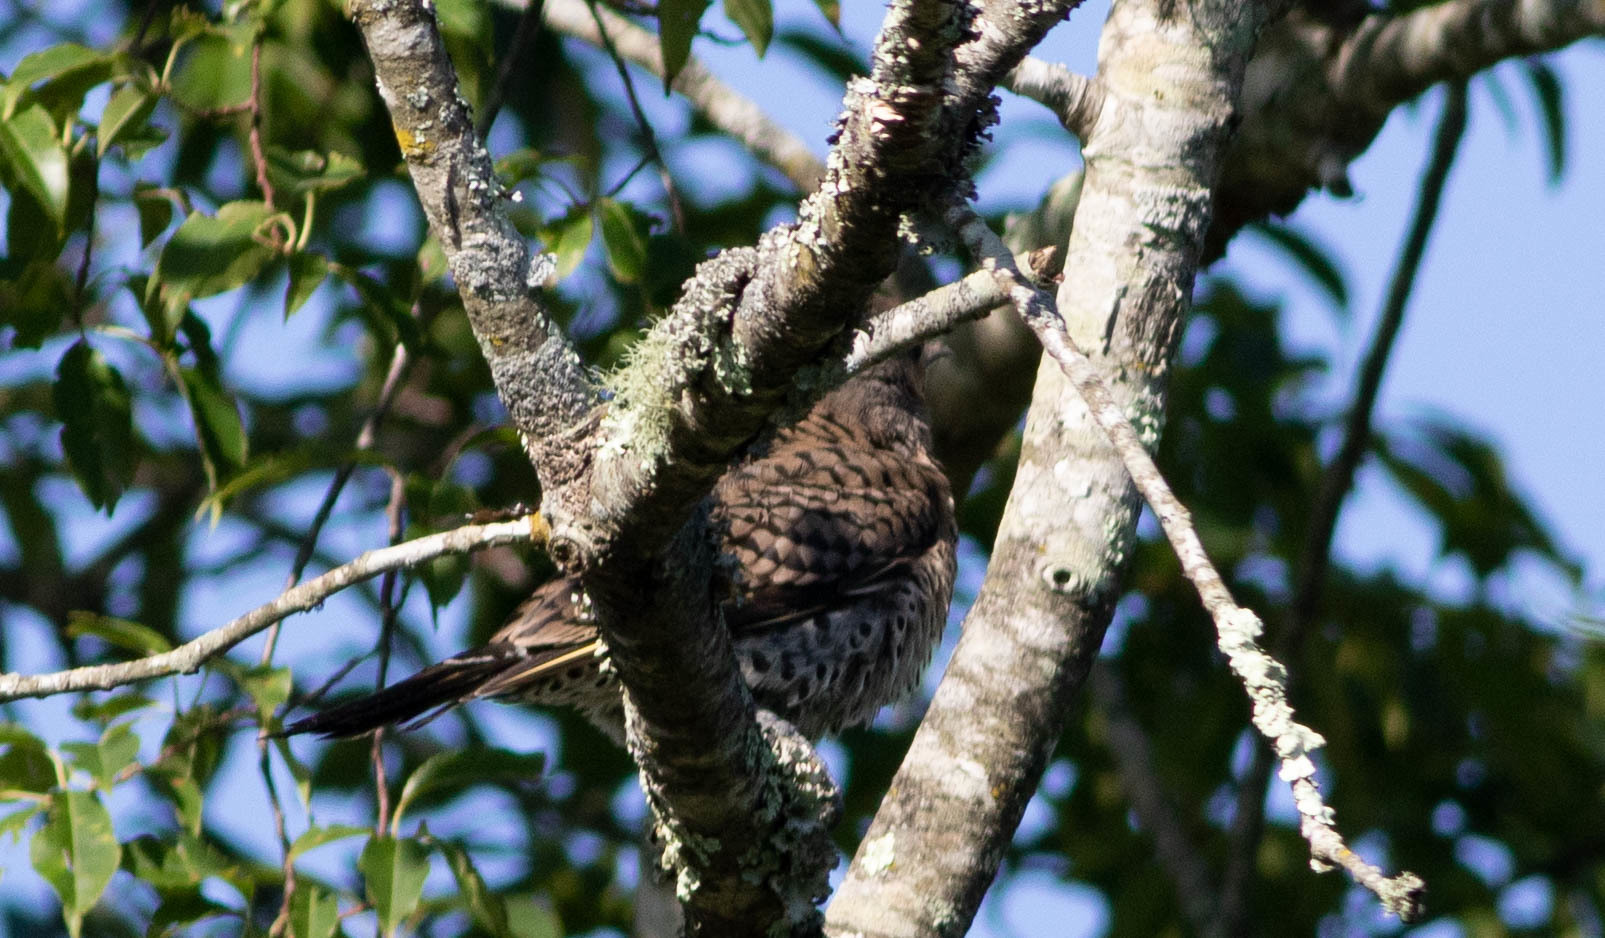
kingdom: Animalia
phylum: Chordata
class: Aves
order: Piciformes
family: Picidae
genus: Colaptes
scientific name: Colaptes auratus
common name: Northern flicker
